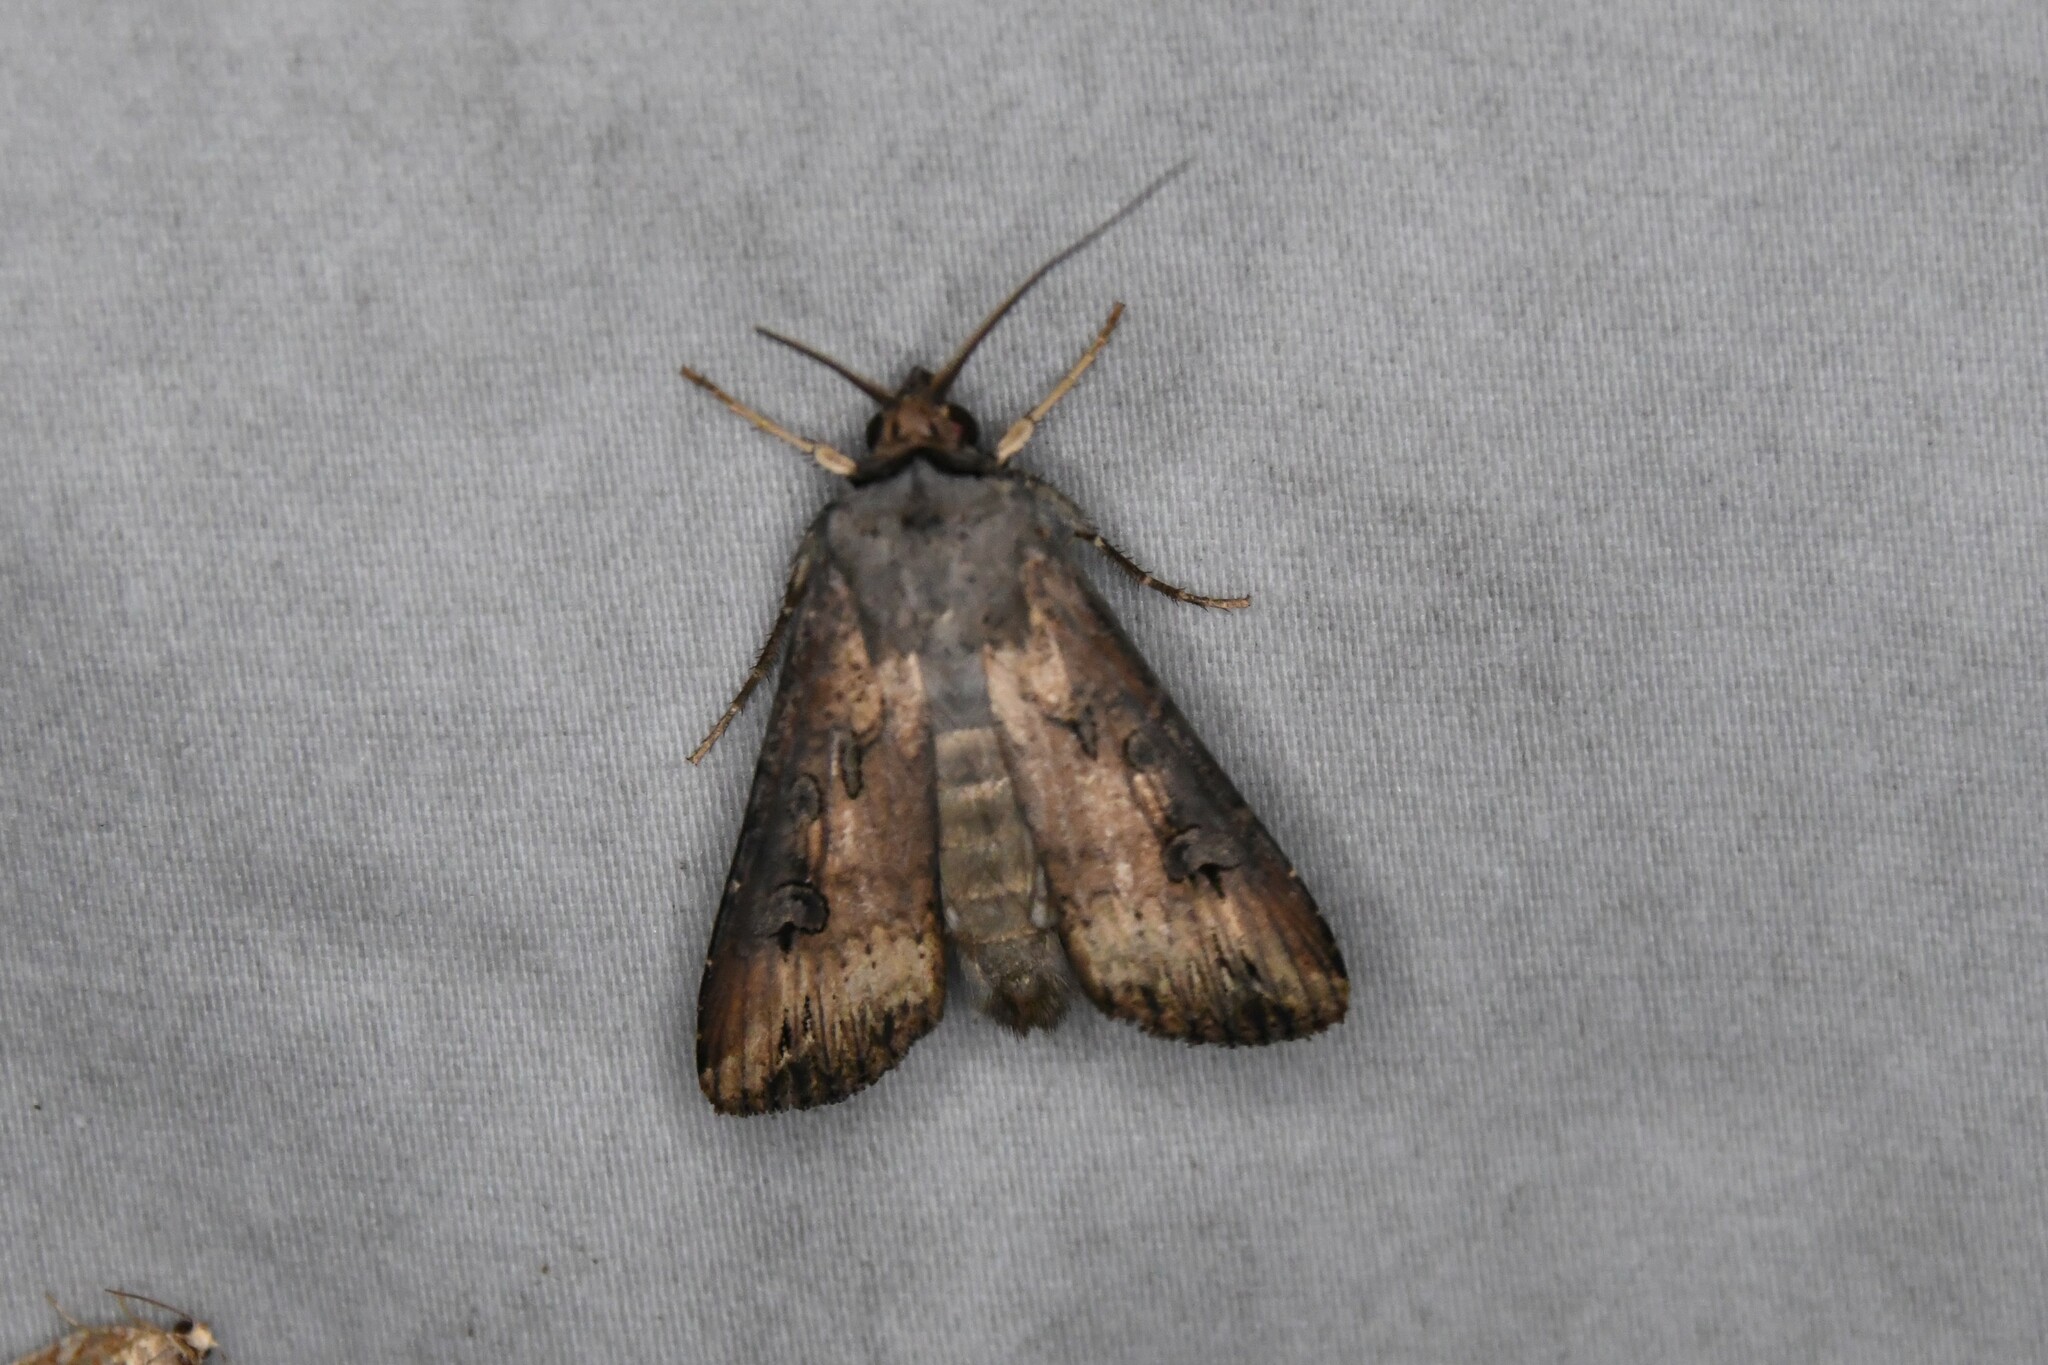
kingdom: Animalia
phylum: Arthropoda
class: Insecta
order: Lepidoptera
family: Noctuidae
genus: Agrotis
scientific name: Agrotis ipsilon
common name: Dark sword-grass
